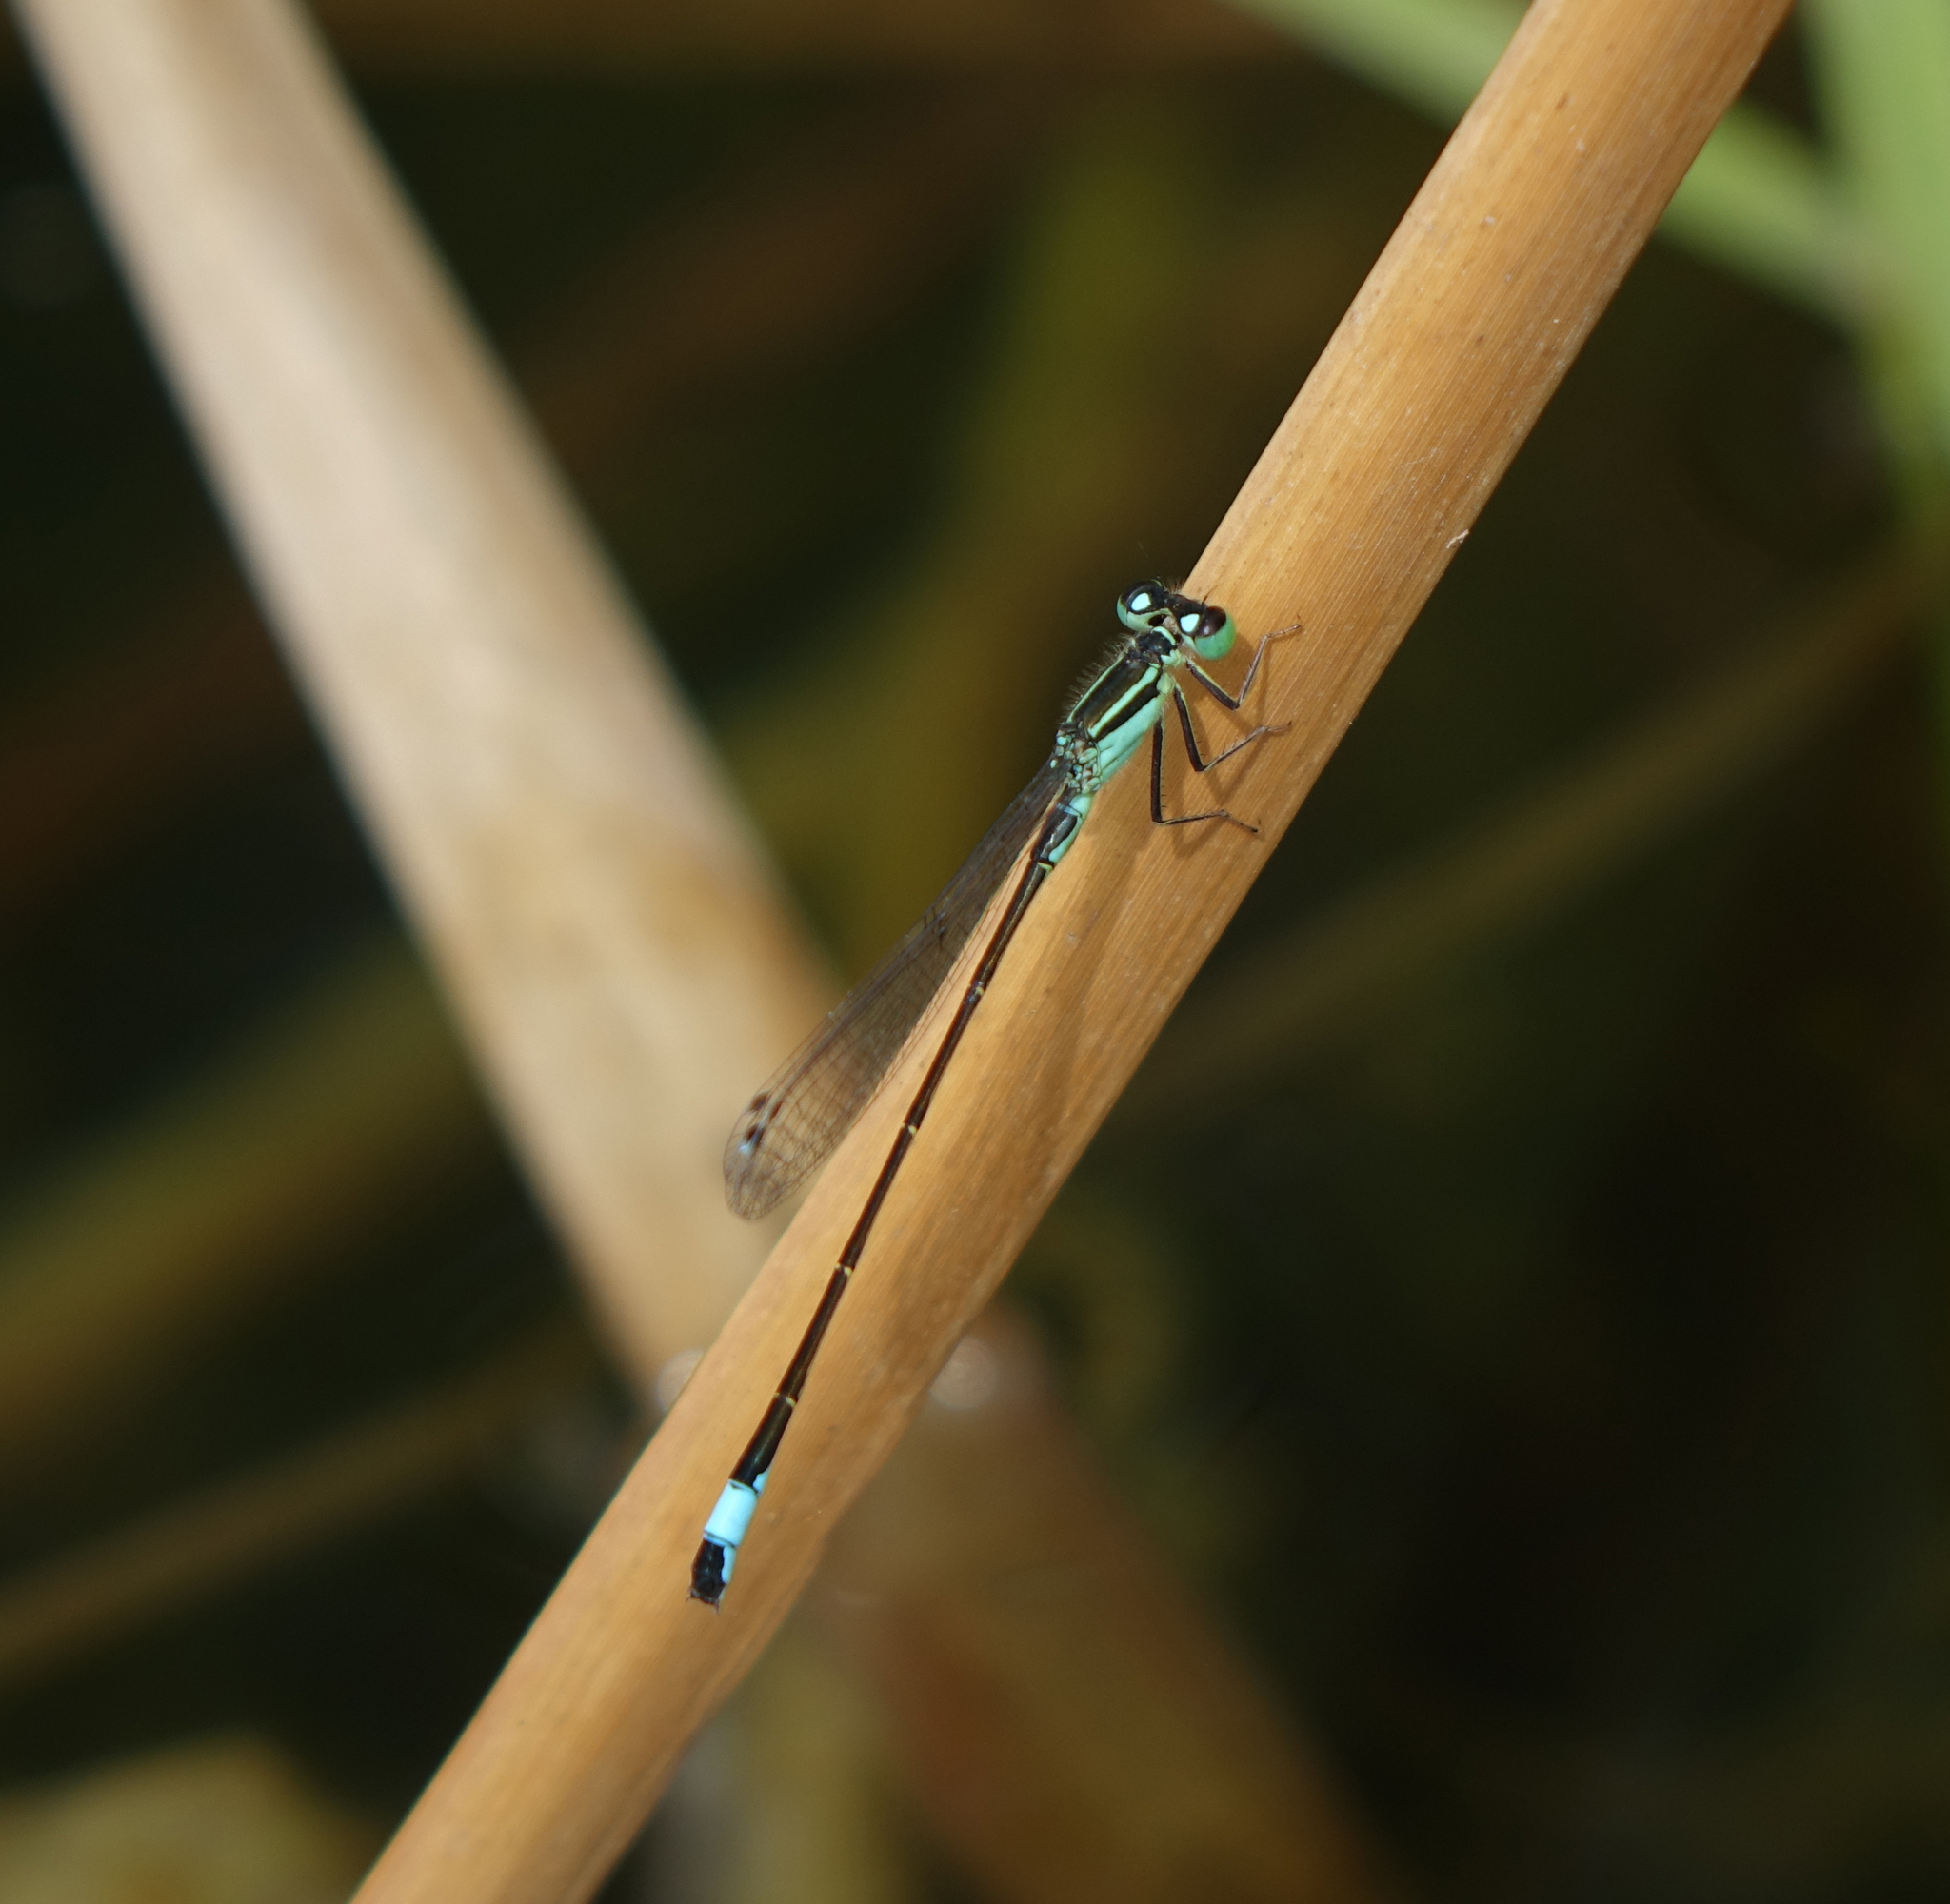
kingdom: Animalia
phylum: Arthropoda
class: Insecta
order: Odonata
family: Coenagrionidae
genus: Ischnura
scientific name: Ischnura elegans
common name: Blue-tailed damselfly
